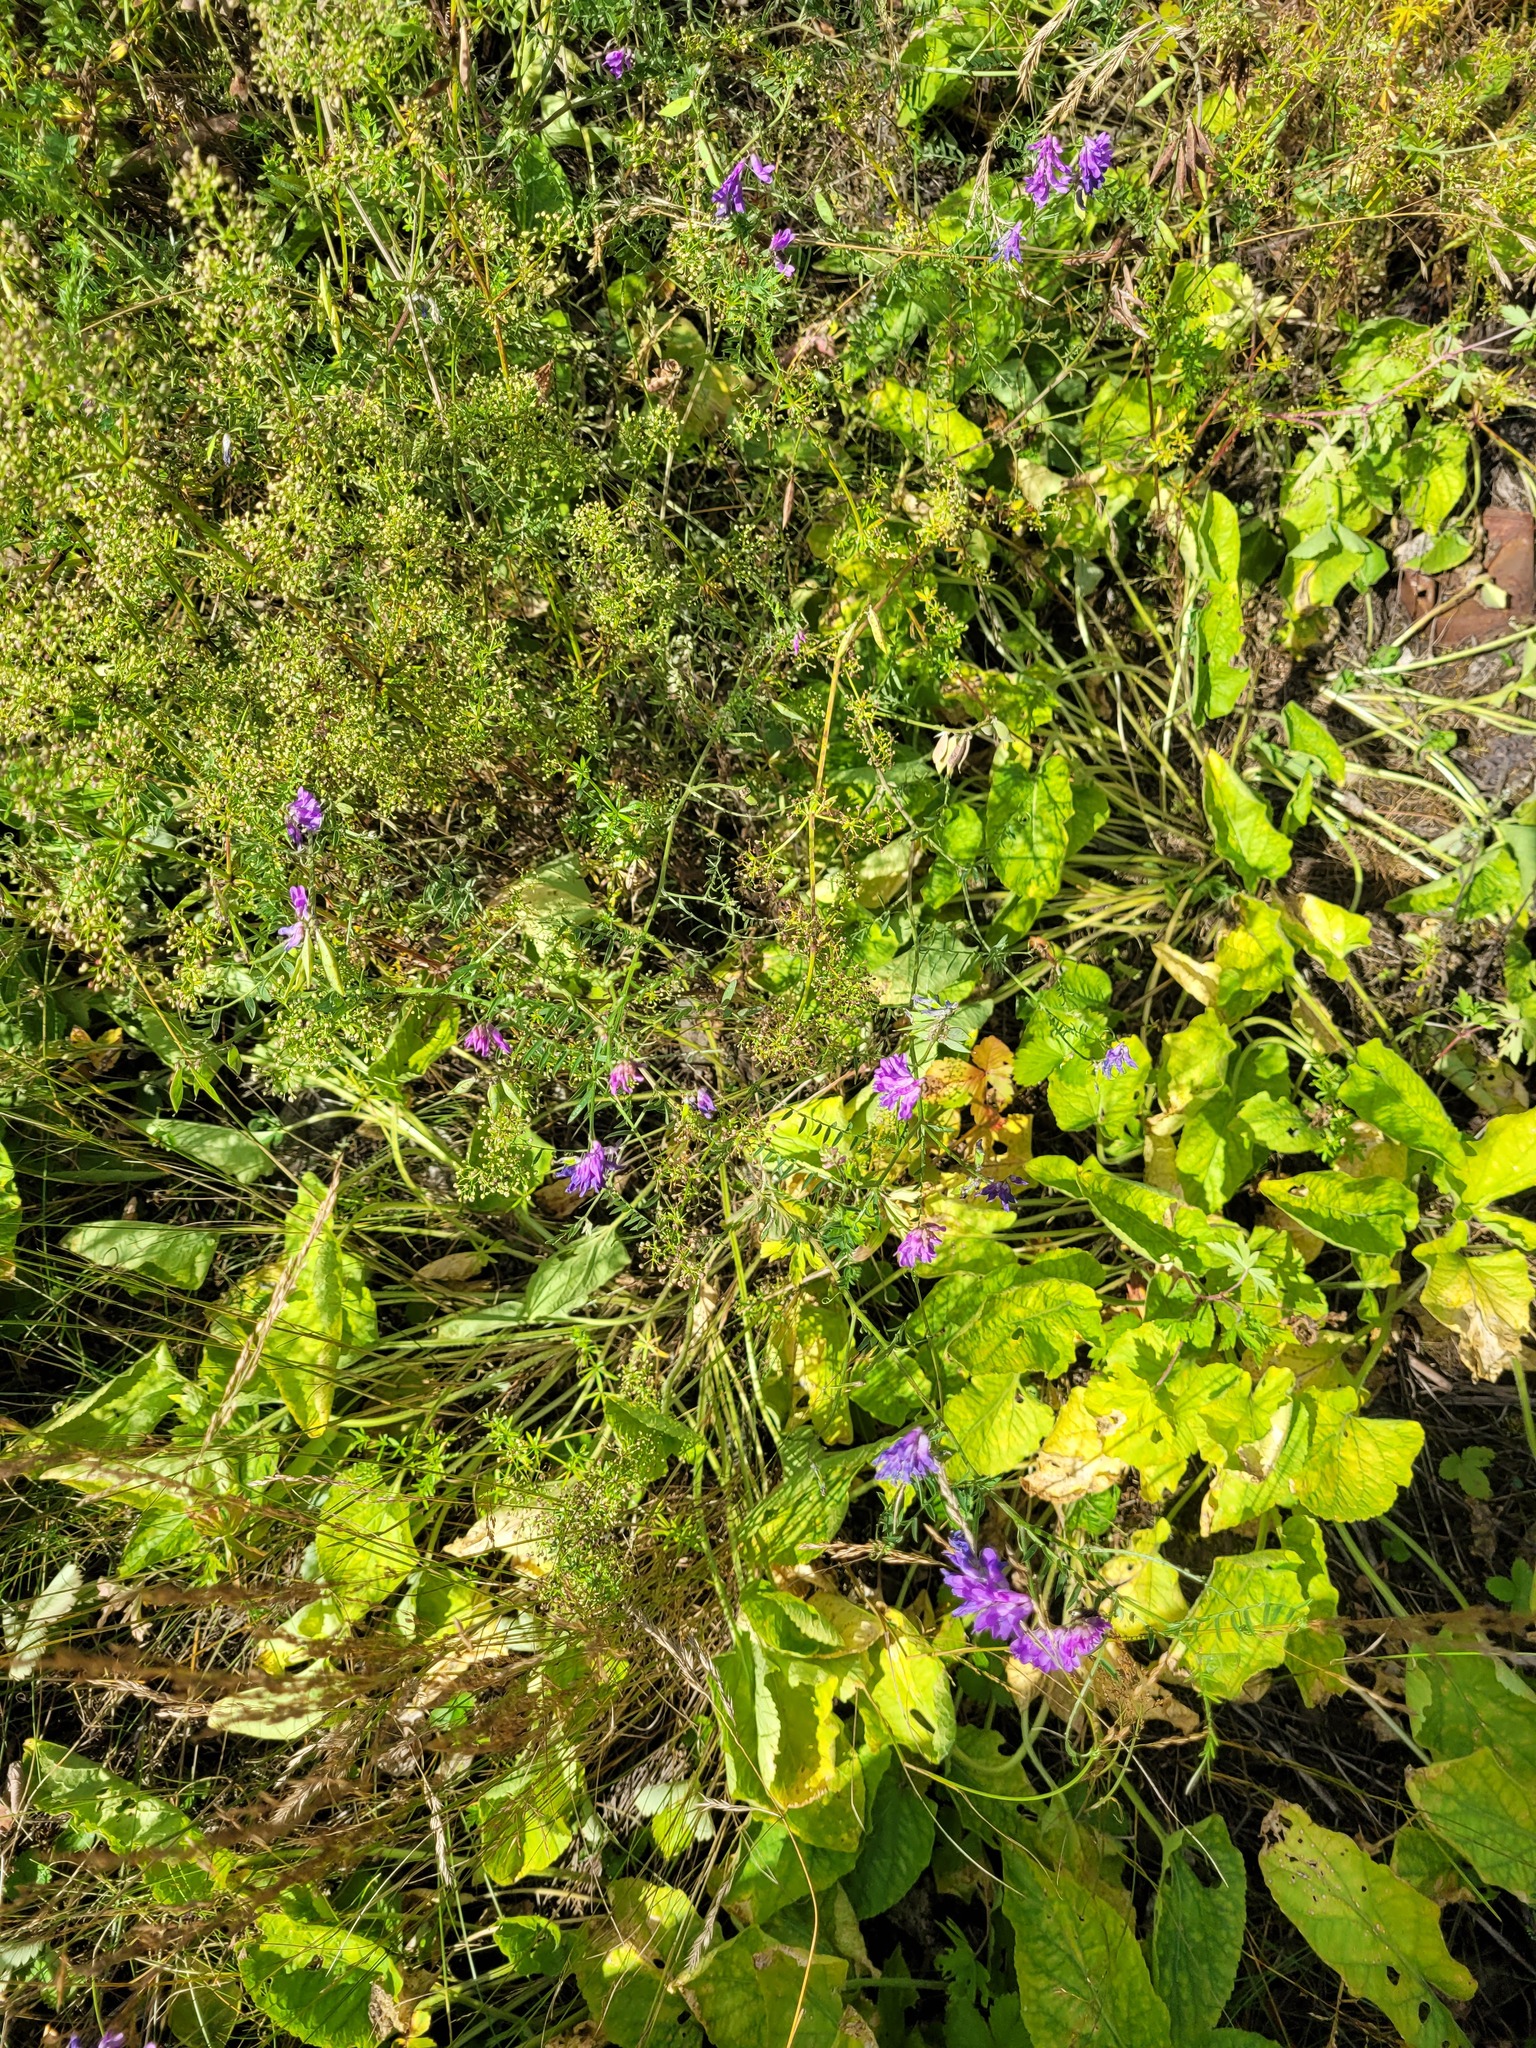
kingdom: Plantae
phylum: Tracheophyta
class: Magnoliopsida
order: Fabales
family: Fabaceae
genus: Vicia
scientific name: Vicia cracca
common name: Bird vetch
